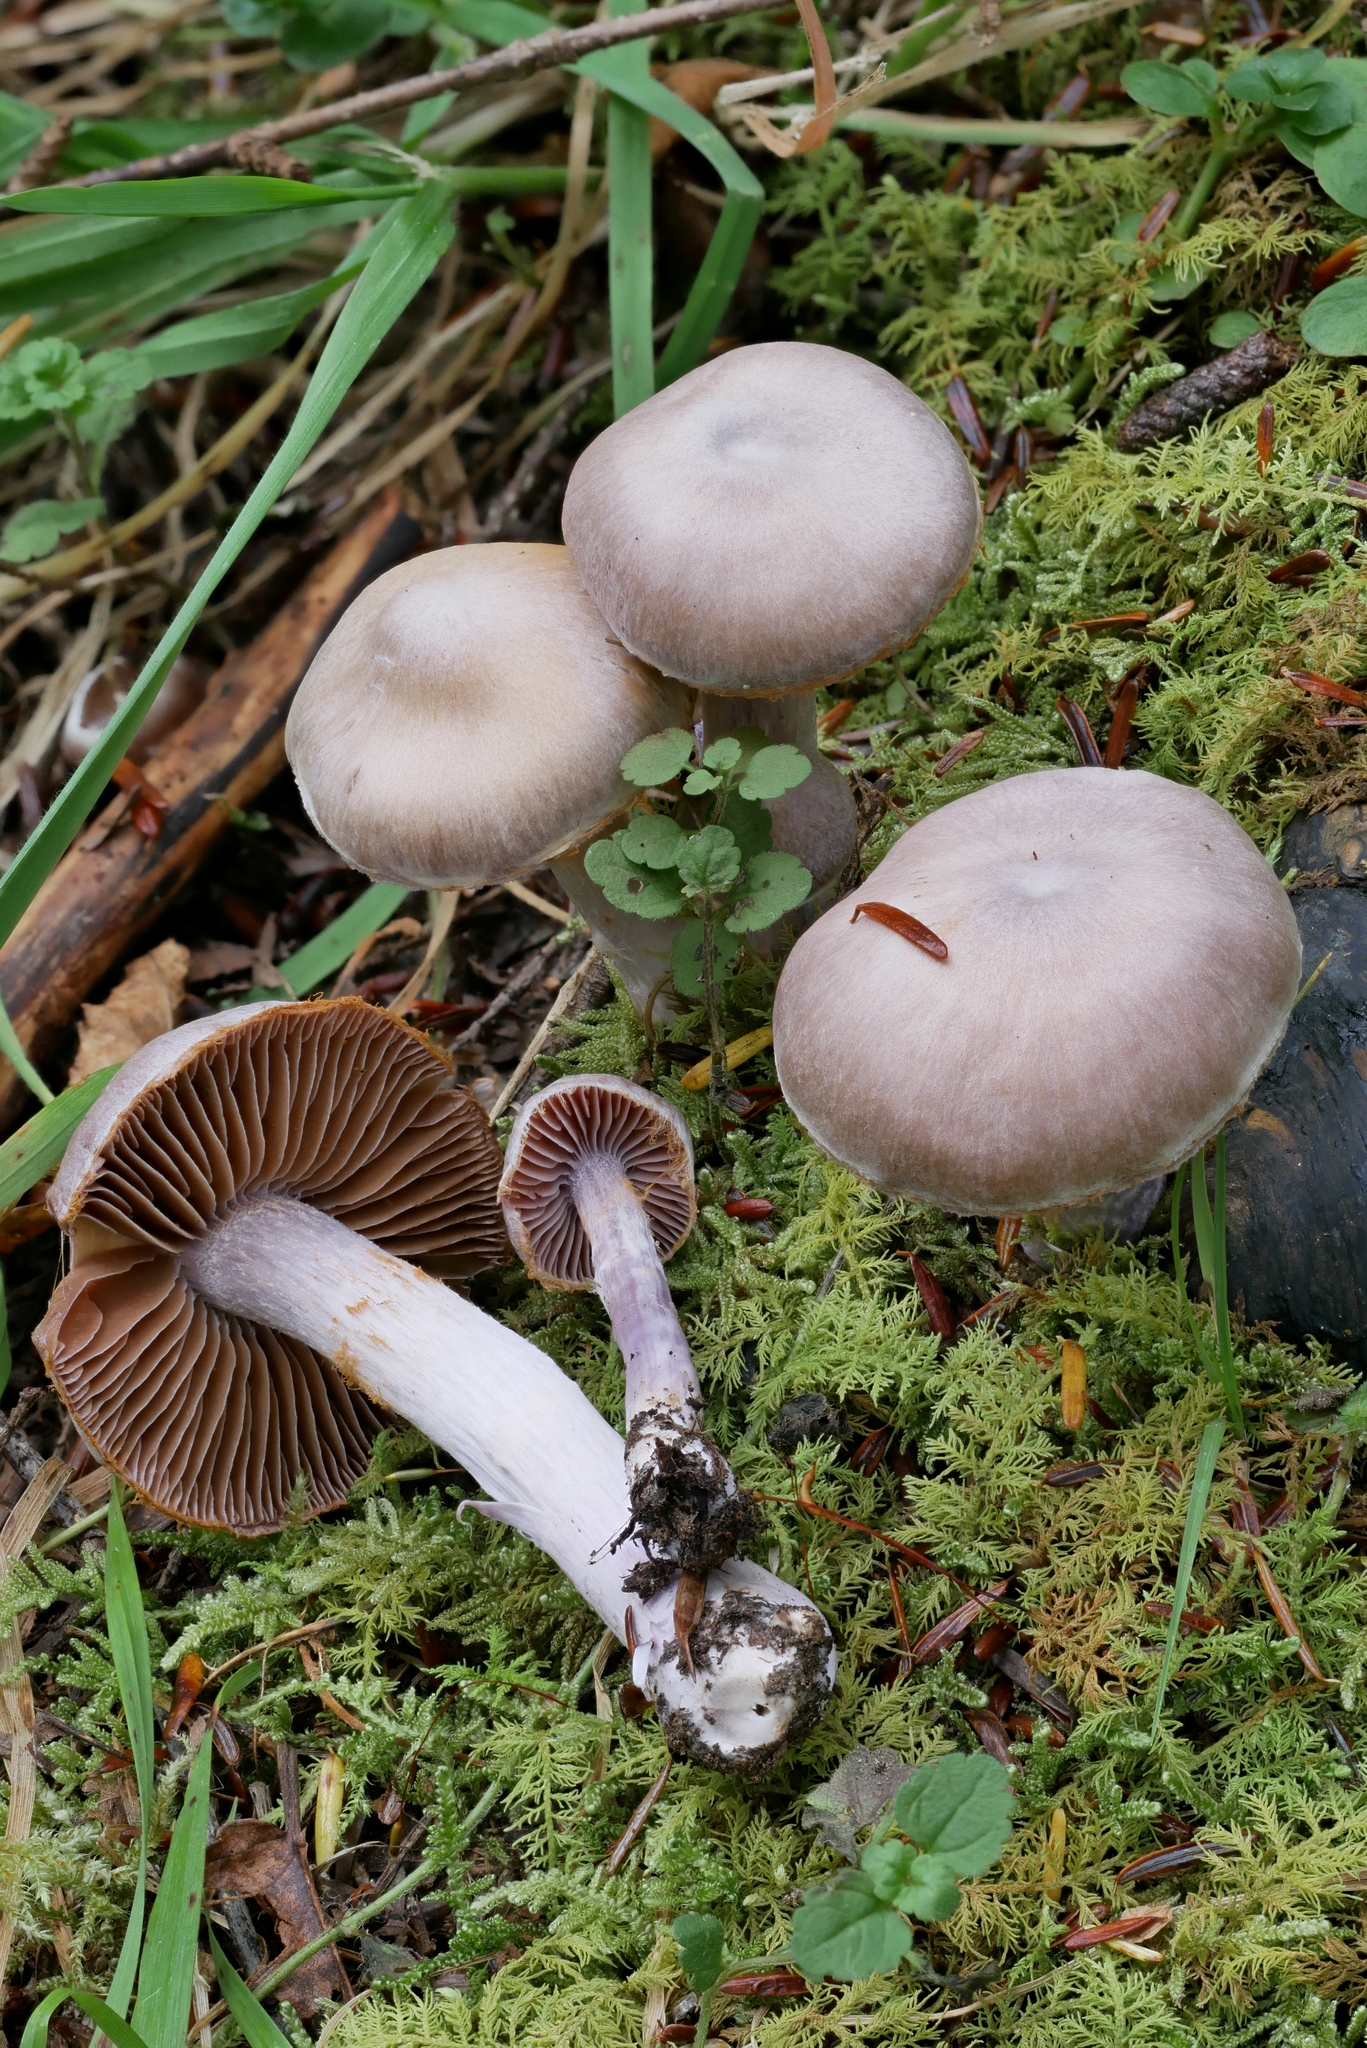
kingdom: Fungi
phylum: Basidiomycota
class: Agaricomycetes
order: Agaricales
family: Cortinariaceae
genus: Cortinarius
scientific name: Cortinarius plumulosus
